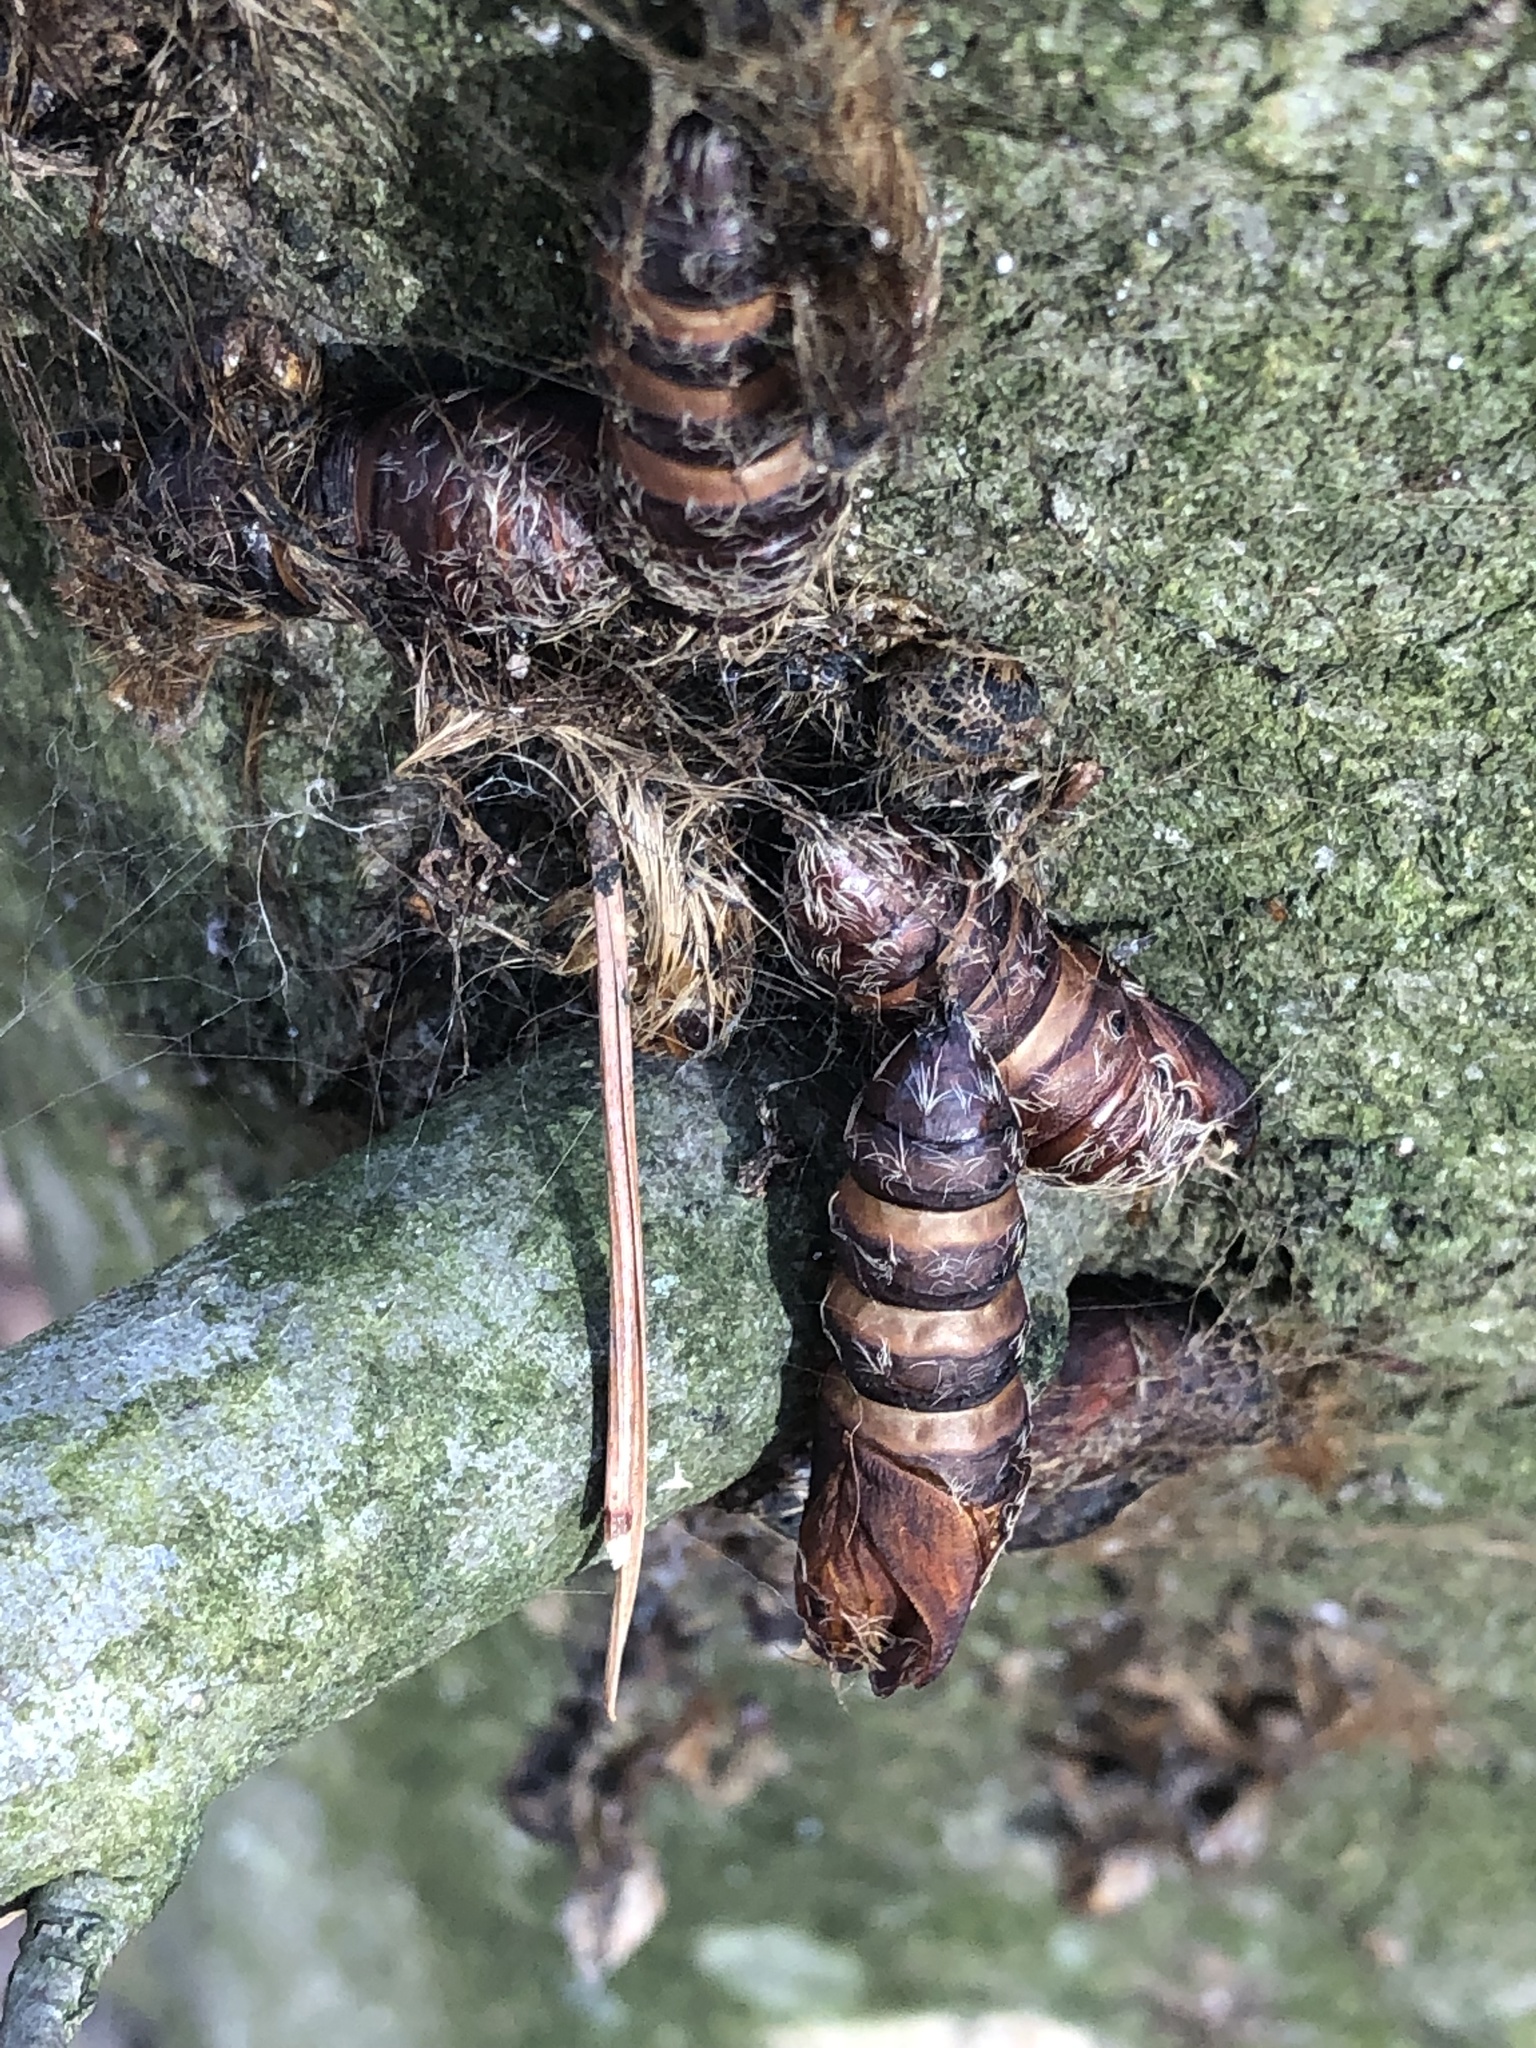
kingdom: Animalia
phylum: Arthropoda
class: Insecta
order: Lepidoptera
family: Erebidae
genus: Lymantria
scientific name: Lymantria dispar
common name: Gypsy moth
